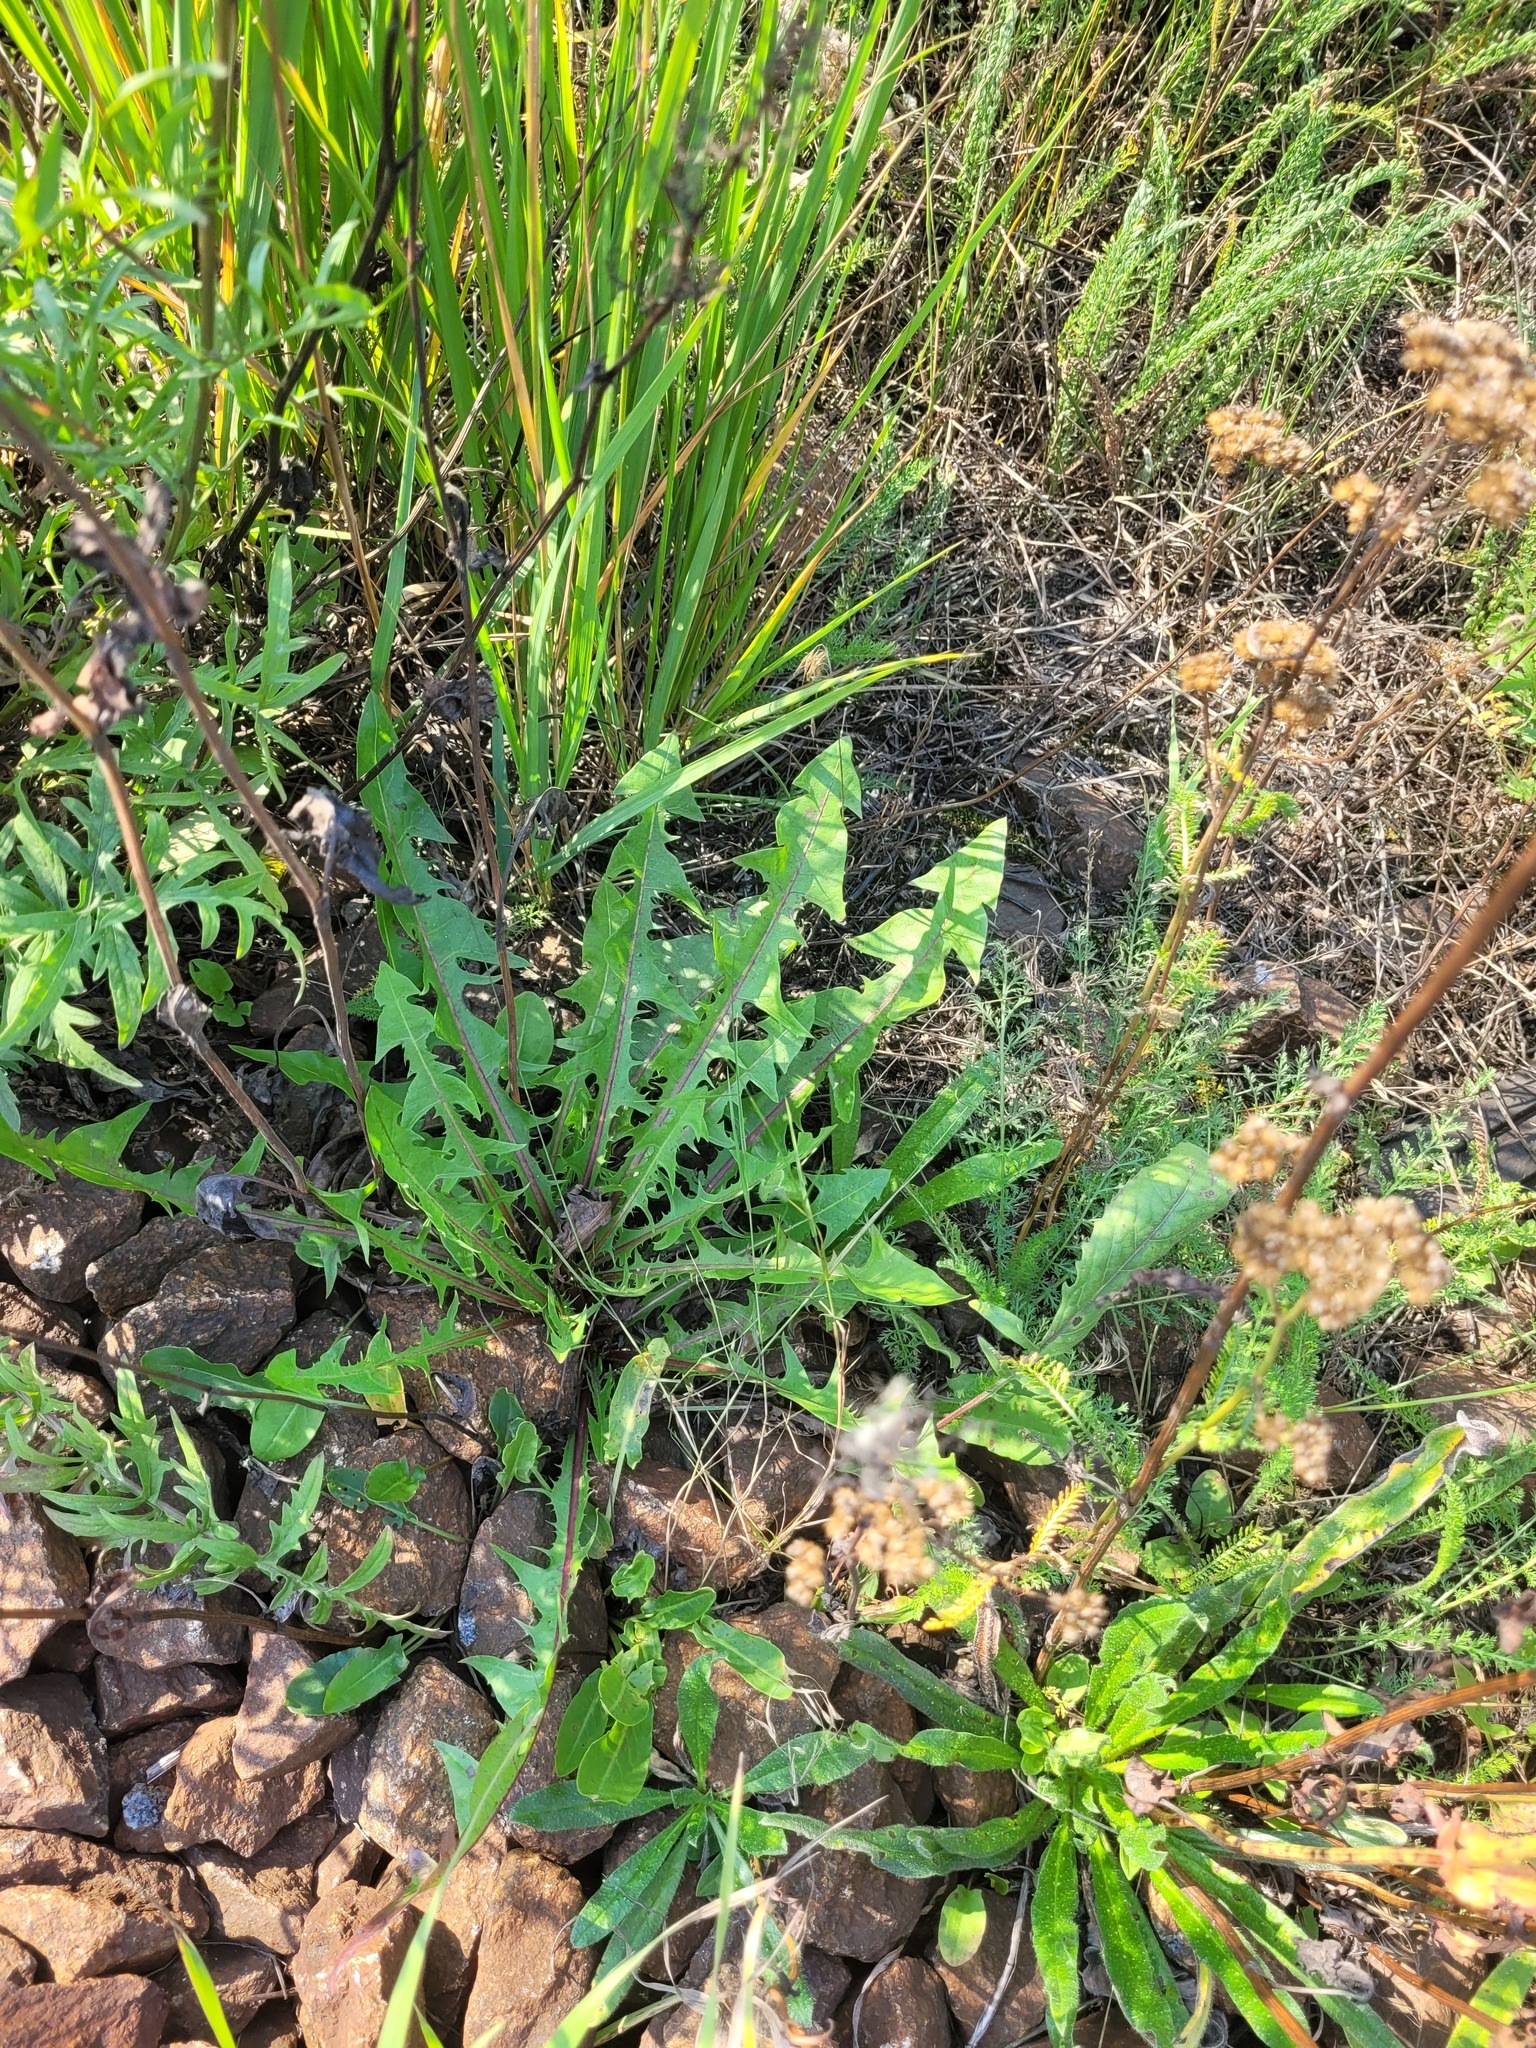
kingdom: Plantae
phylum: Tracheophyta
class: Magnoliopsida
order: Asterales
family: Asteraceae
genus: Taraxacum
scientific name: Taraxacum officinale
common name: Common dandelion
